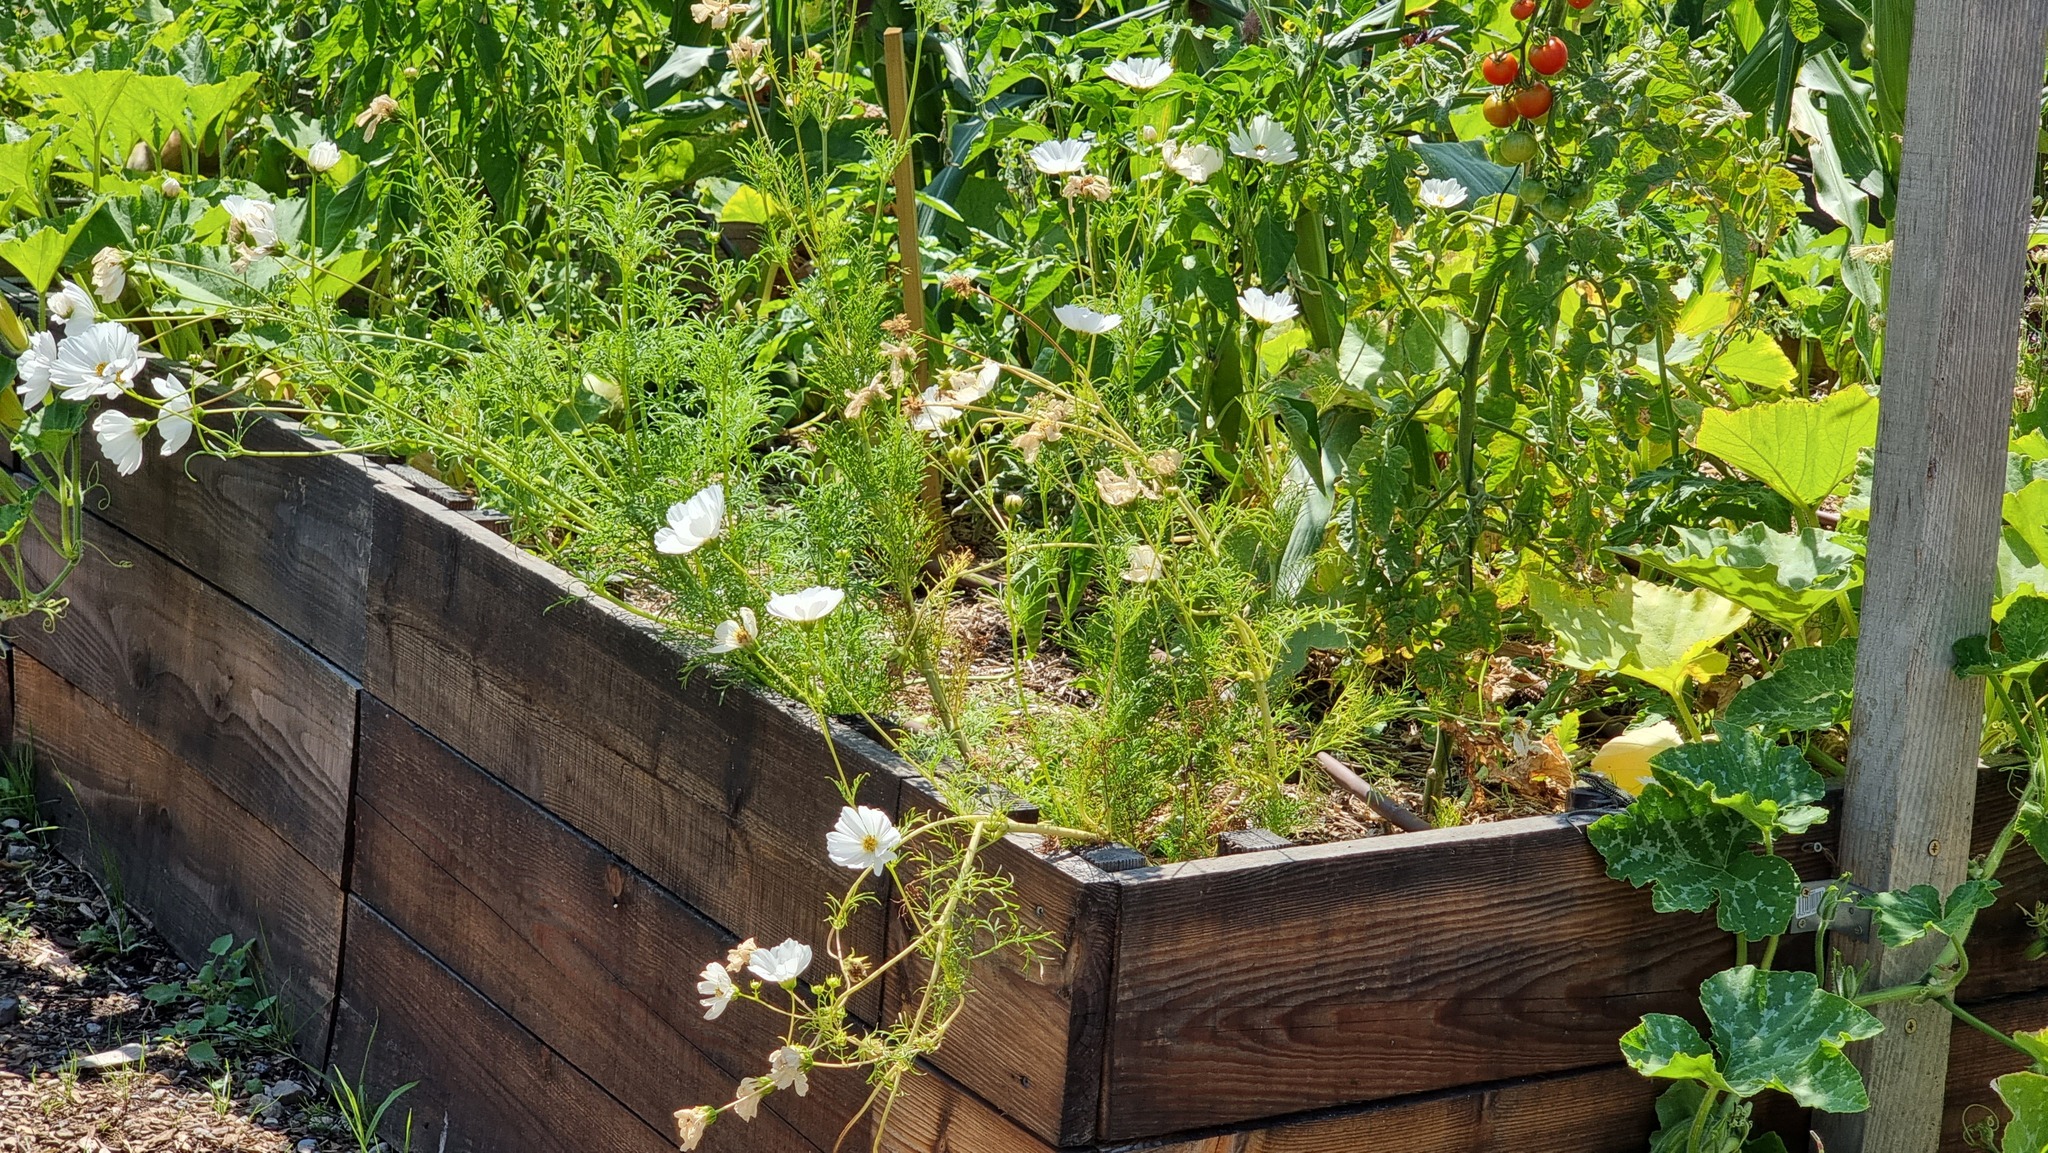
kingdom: Plantae
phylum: Tracheophyta
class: Magnoliopsida
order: Asterales
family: Asteraceae
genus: Cosmos
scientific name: Cosmos bipinnatus
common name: Garden cosmos
